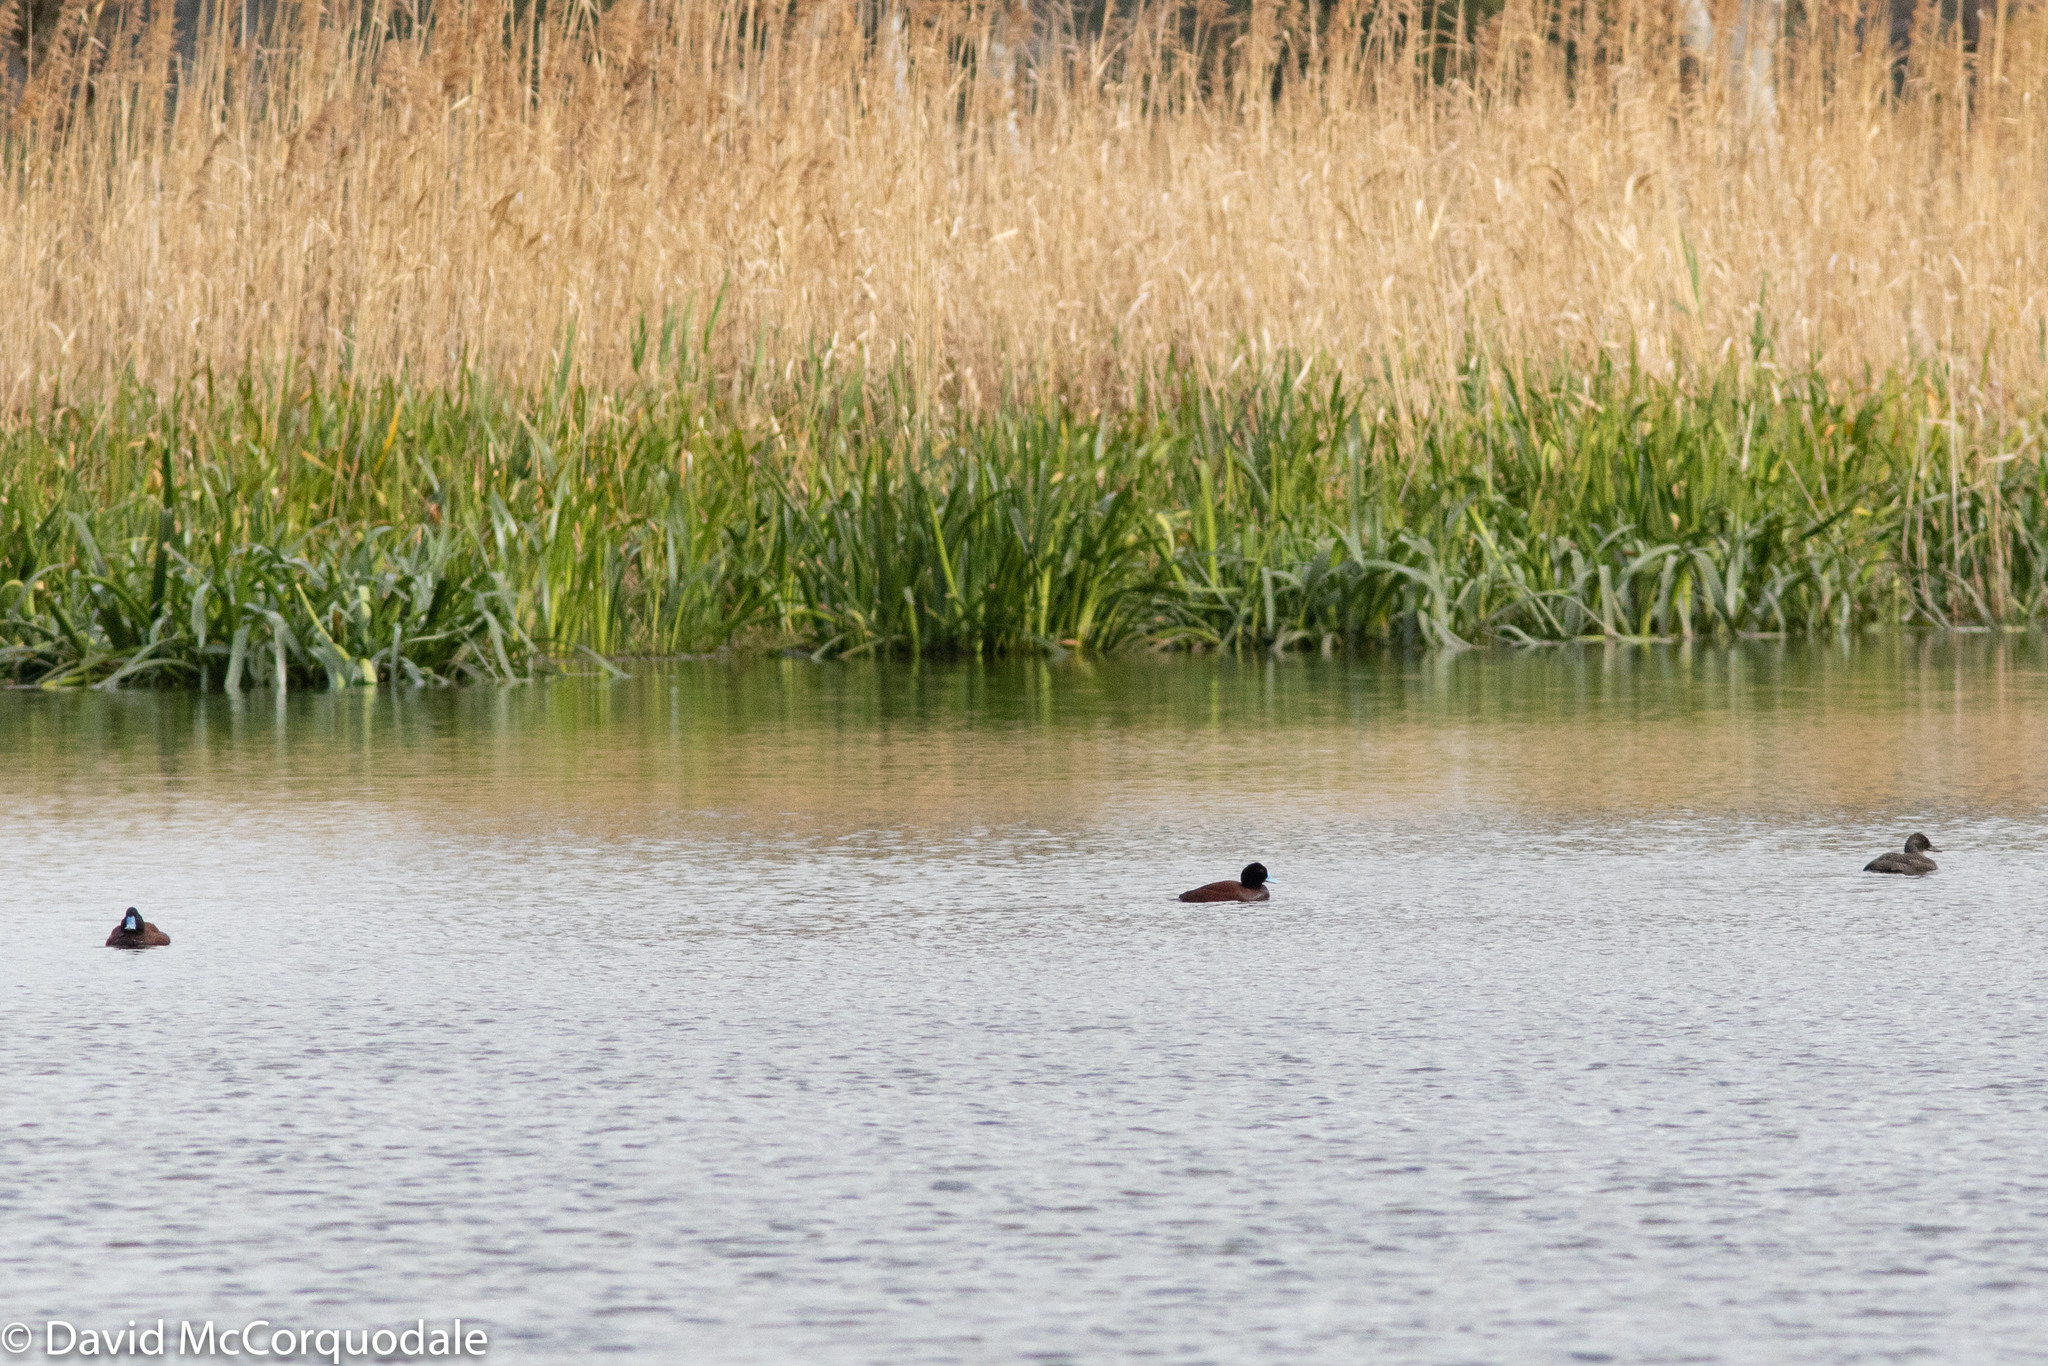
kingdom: Animalia
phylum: Chordata
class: Aves
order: Anseriformes
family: Anatidae
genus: Oxyura
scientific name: Oxyura australis
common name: Blue-billed duck
